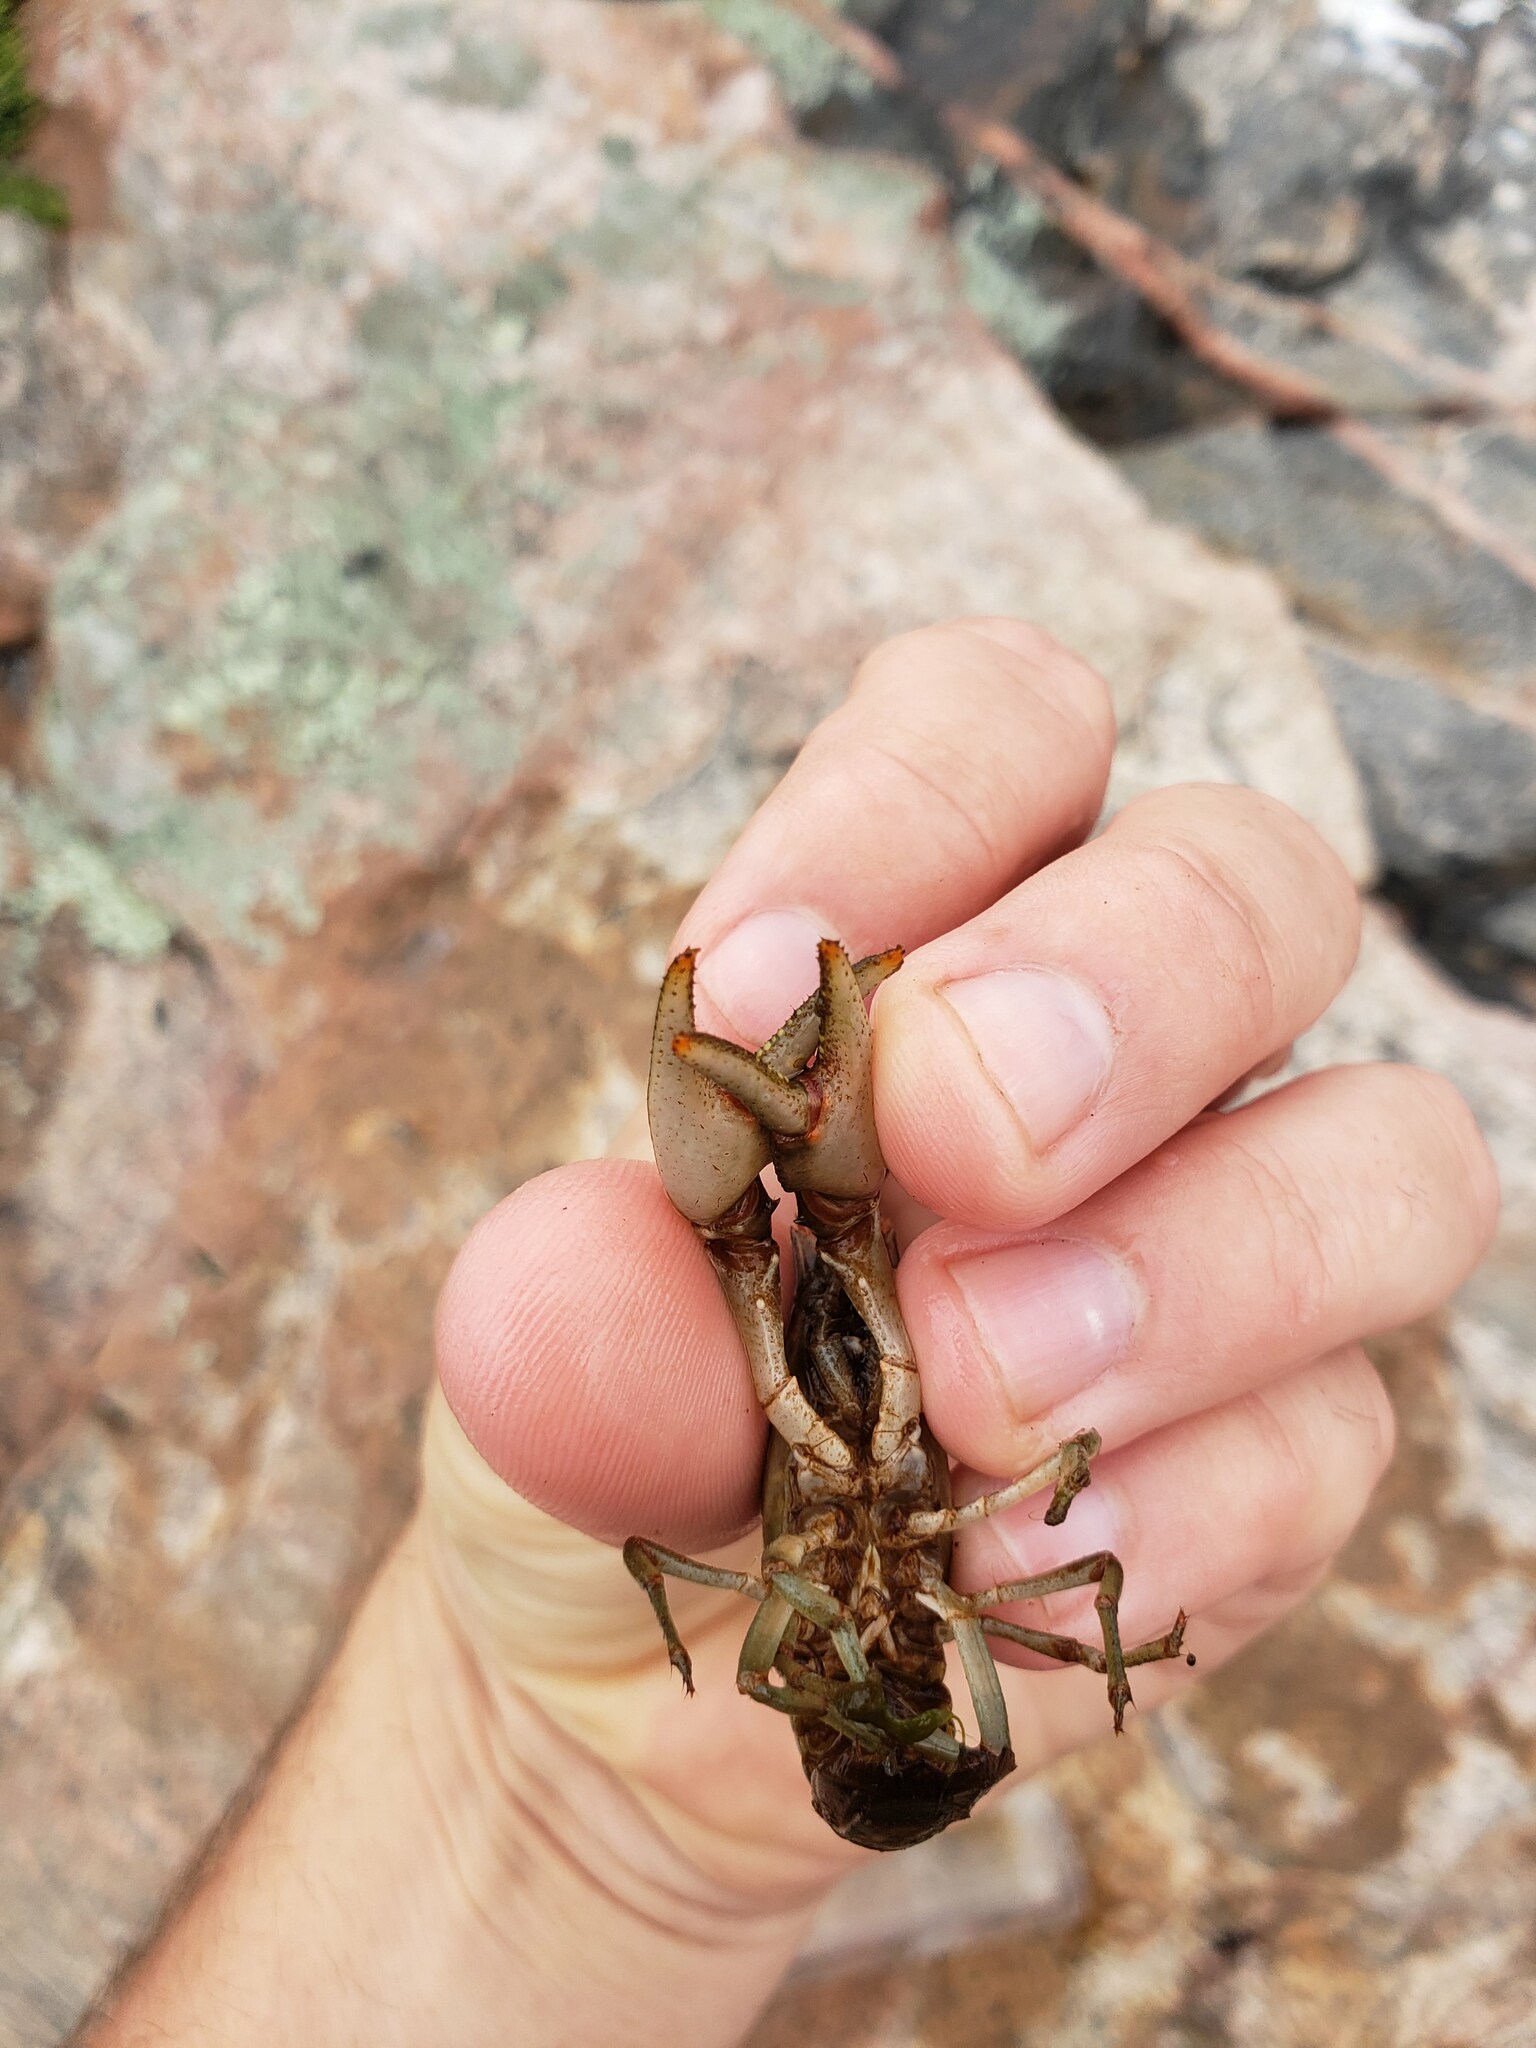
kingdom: Animalia
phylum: Arthropoda
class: Malacostraca
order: Decapoda
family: Cambaridae
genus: Faxonius
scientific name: Faxonius propinquus
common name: Northern clearwater crayfish
